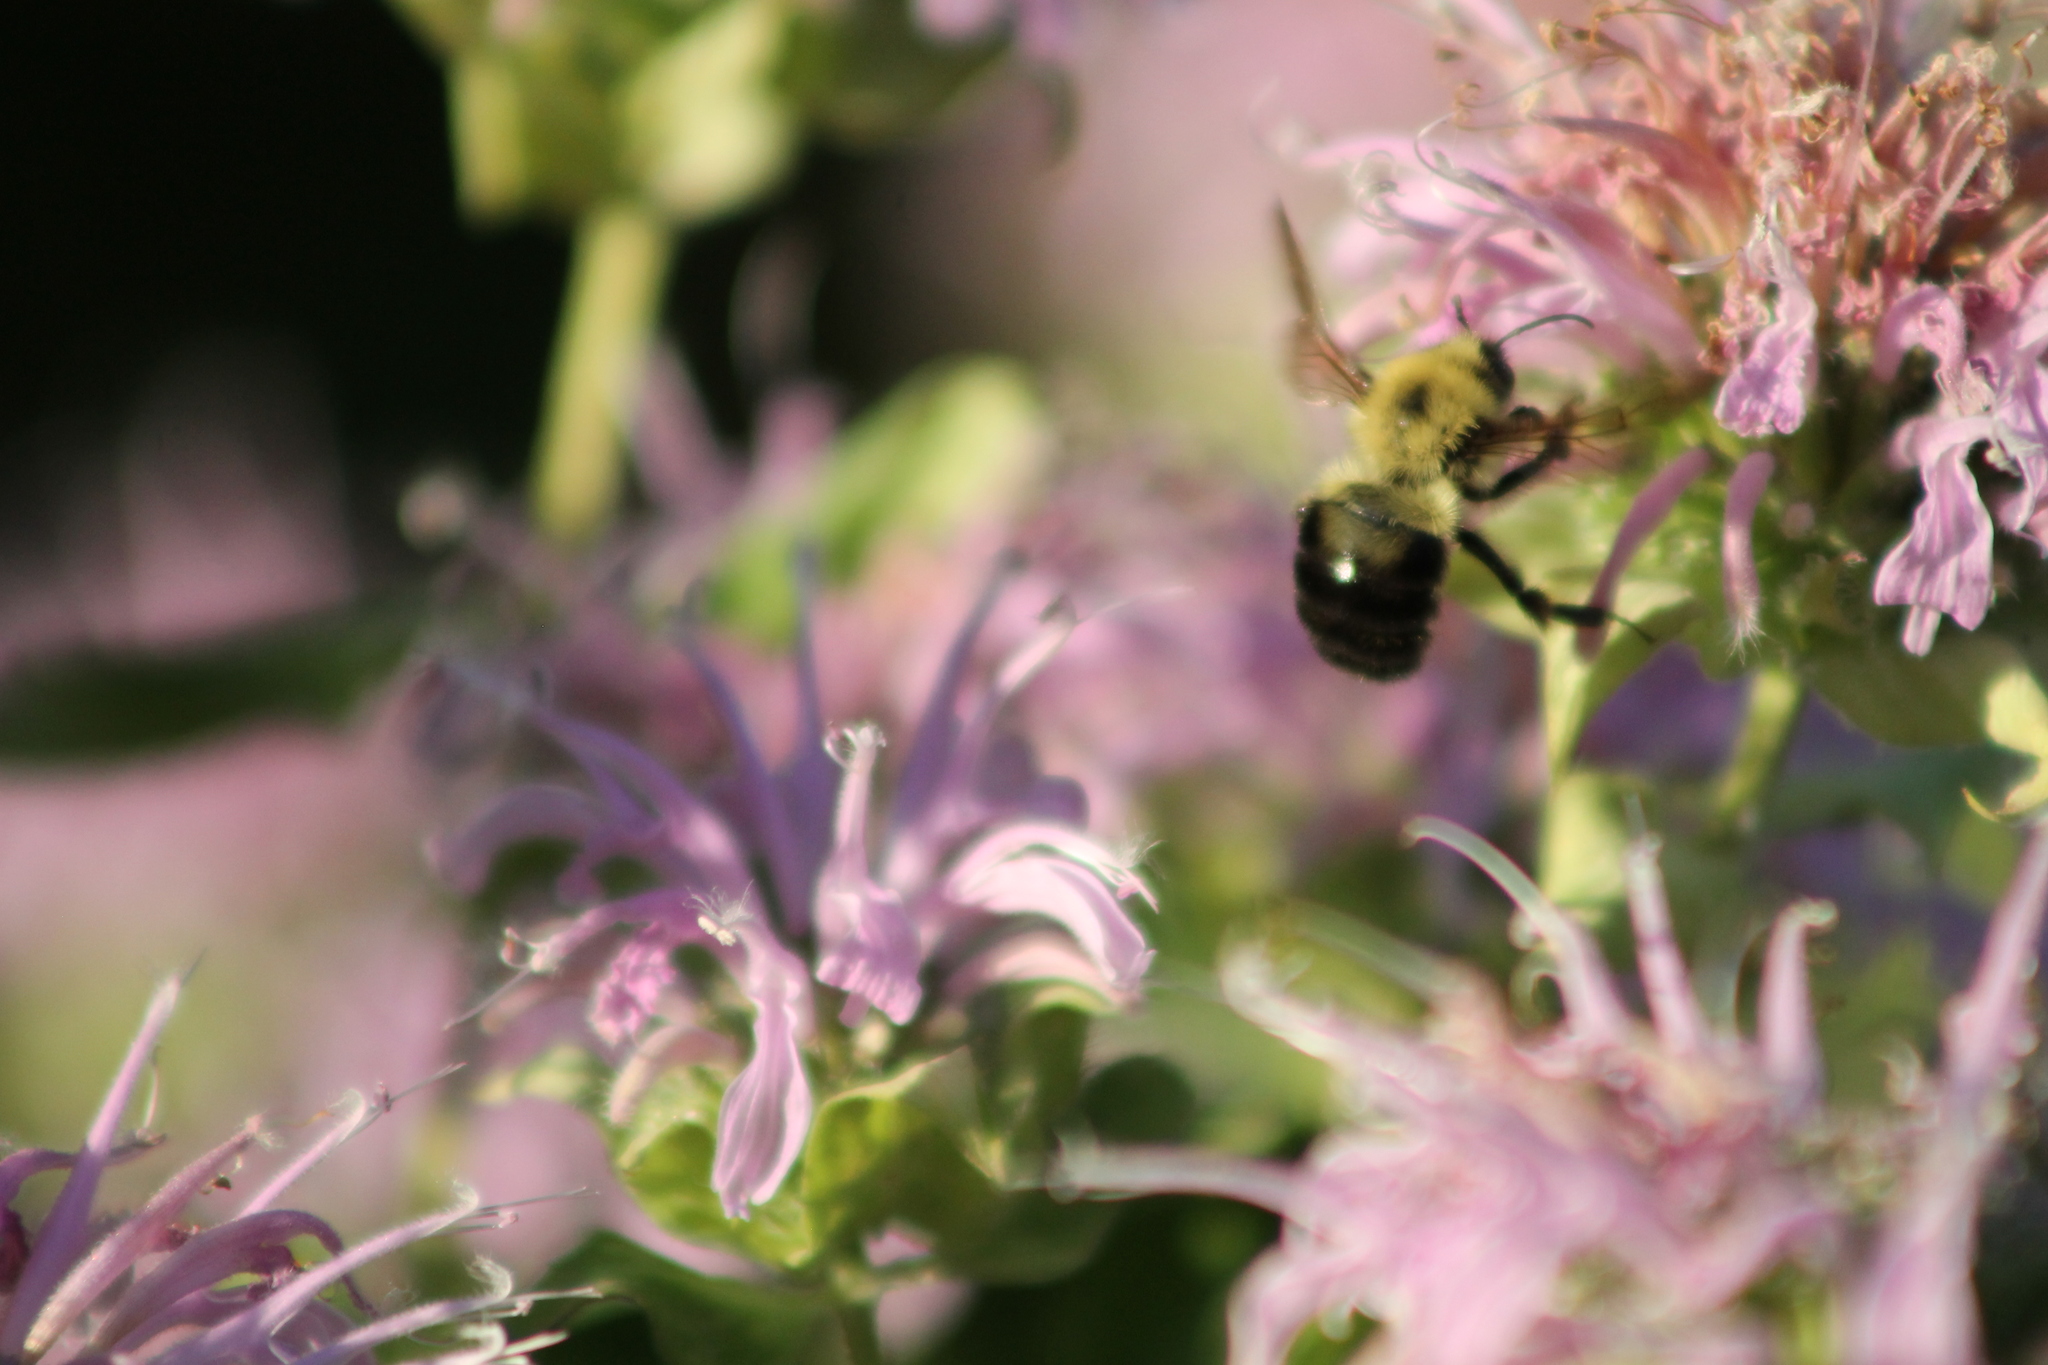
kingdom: Animalia
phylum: Arthropoda
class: Insecta
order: Hymenoptera
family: Apidae
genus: Bombus
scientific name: Bombus bimaculatus
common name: Two-spotted bumble bee
